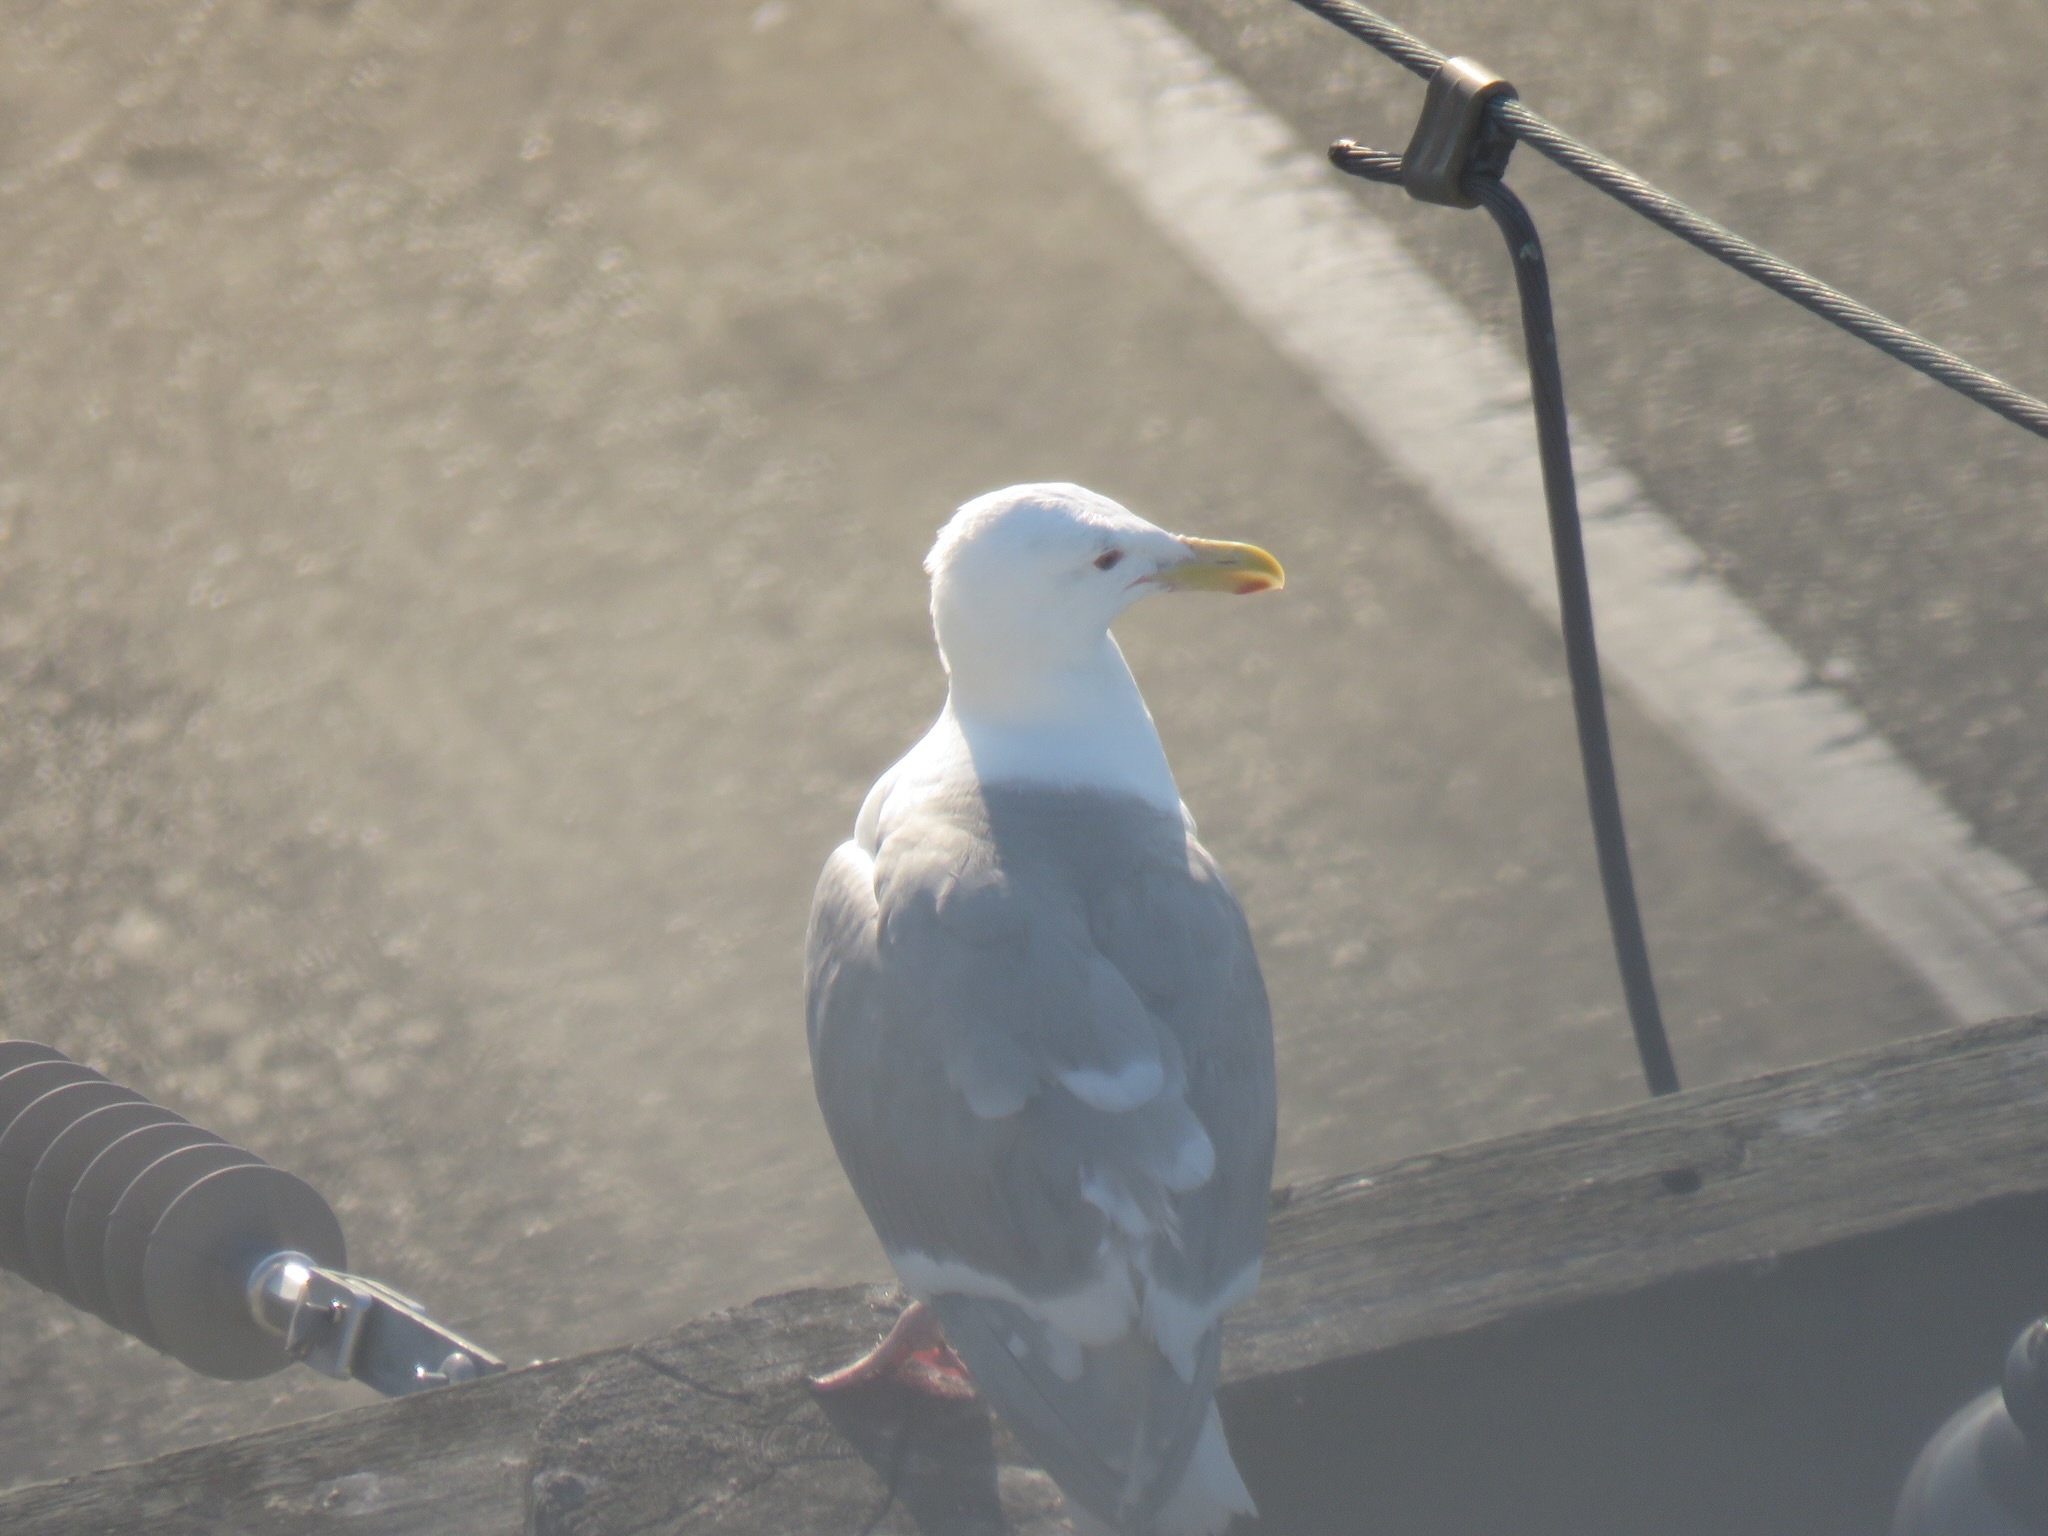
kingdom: Animalia
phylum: Chordata
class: Aves
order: Charadriiformes
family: Laridae
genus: Larus
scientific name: Larus glaucescens
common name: Glaucous-winged gull
